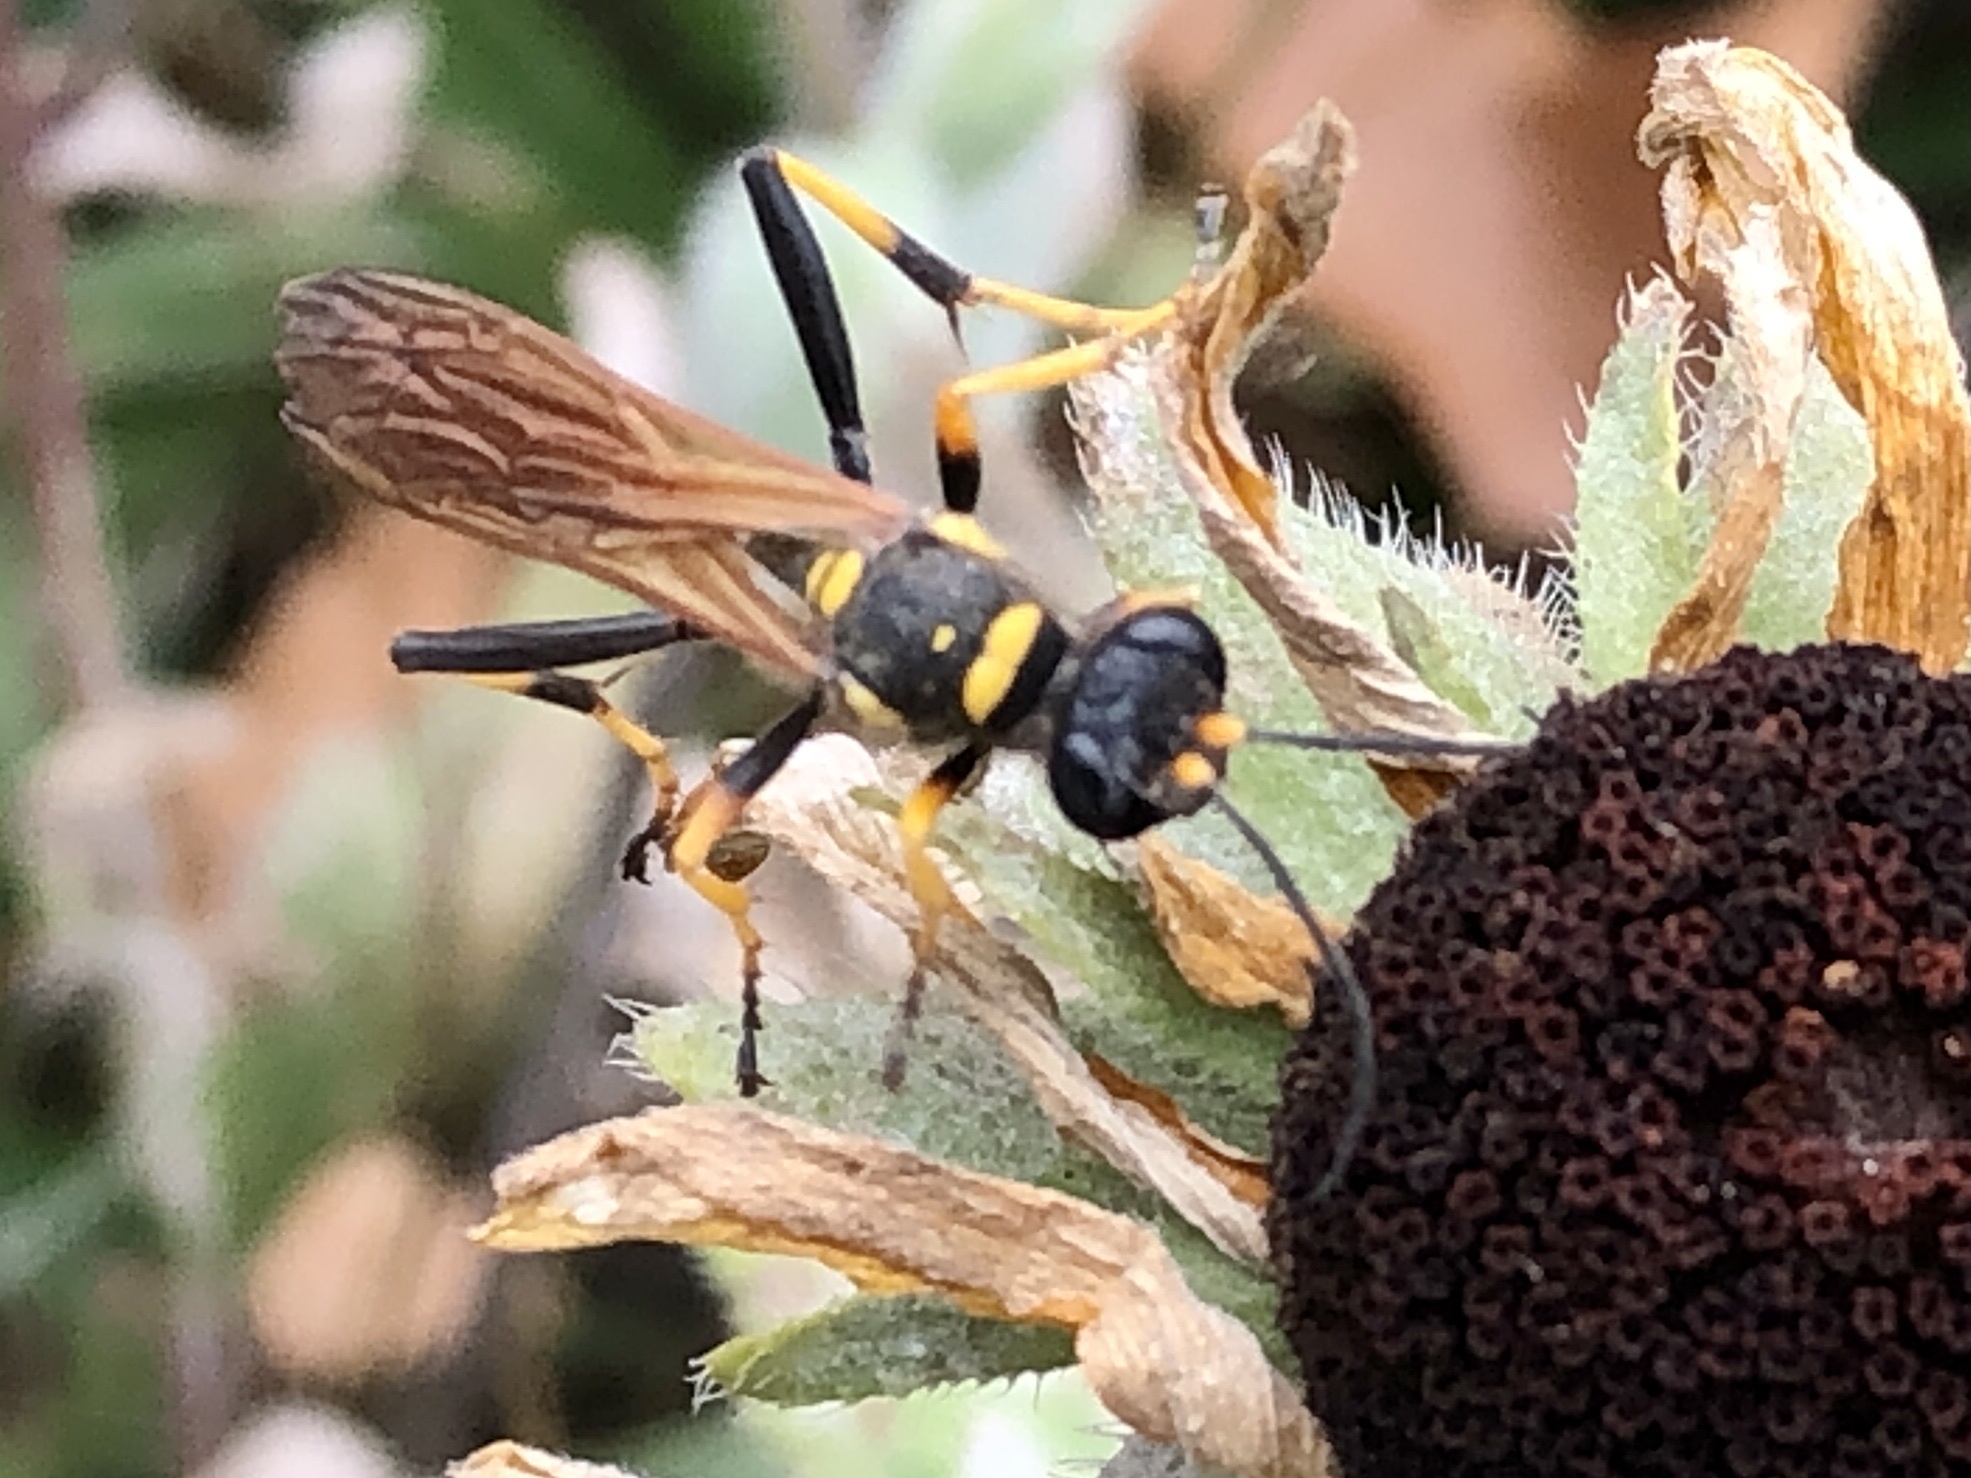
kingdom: Animalia
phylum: Arthropoda
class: Insecta
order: Hymenoptera
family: Sphecidae
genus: Sceliphron
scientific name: Sceliphron caementarium
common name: Mud dauber
